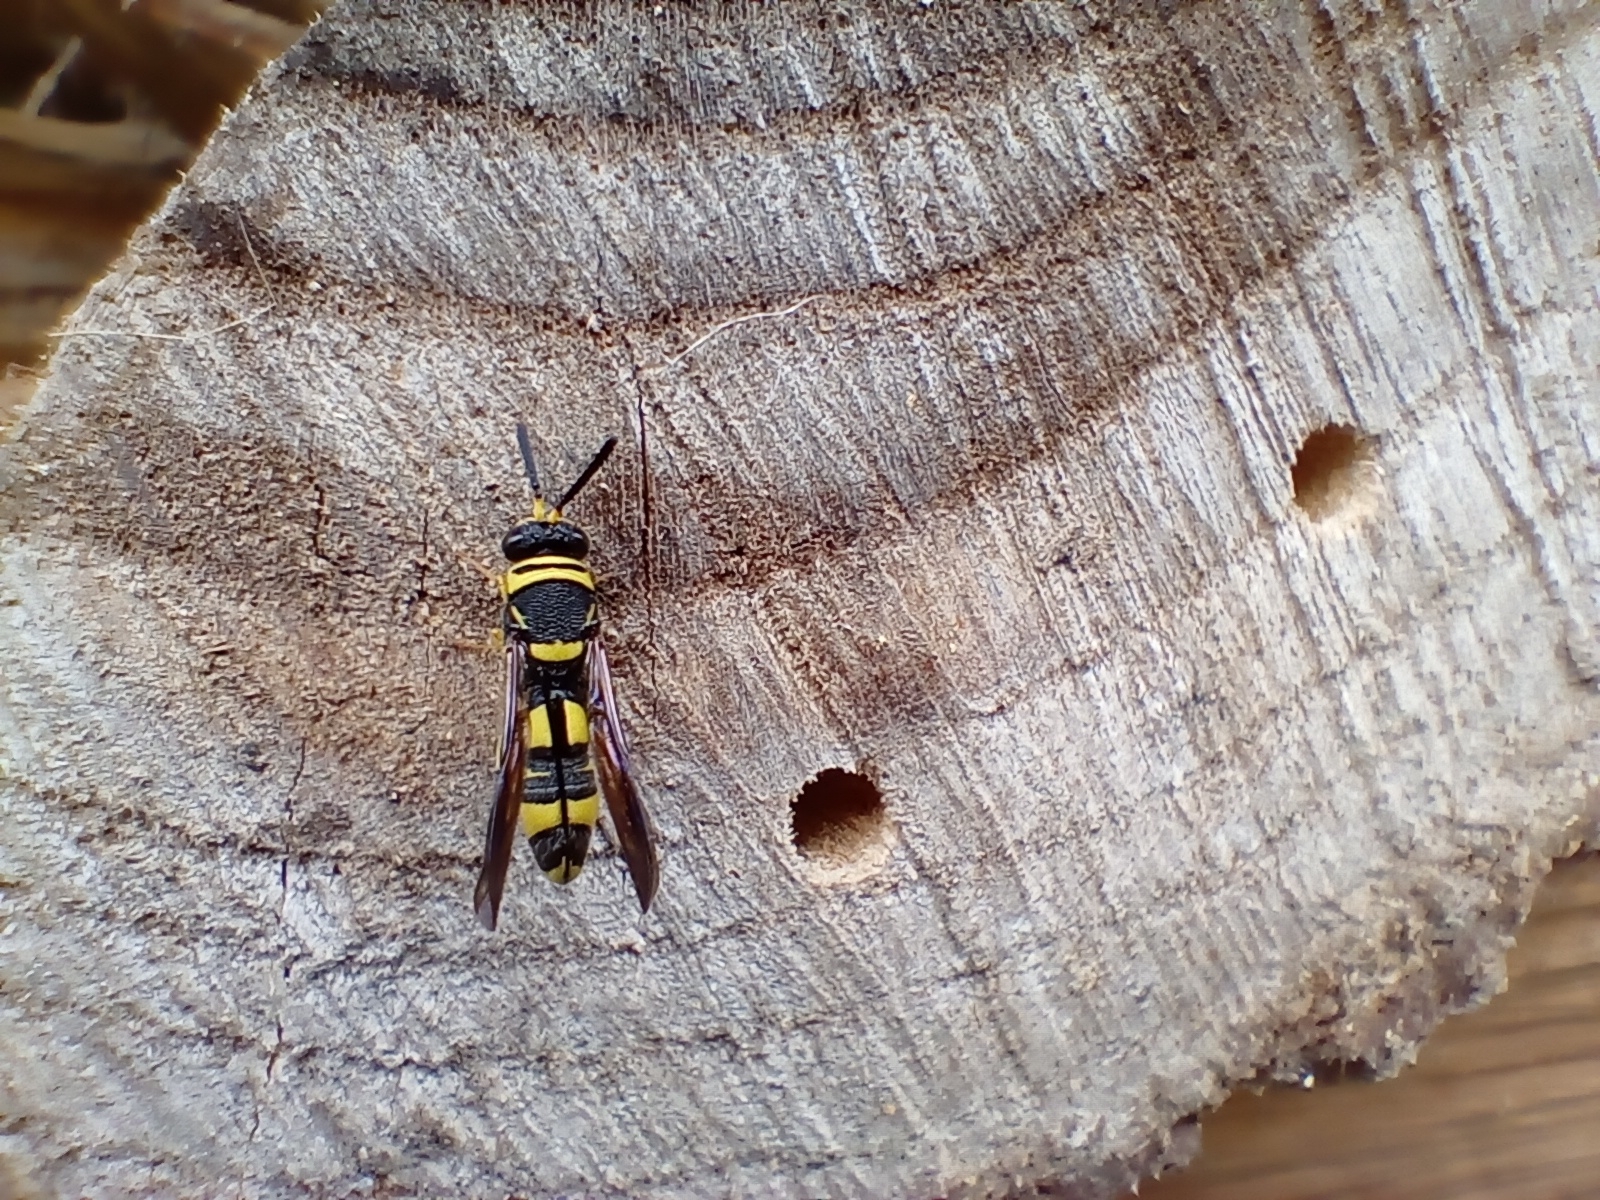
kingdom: Animalia
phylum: Arthropoda
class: Insecta
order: Hymenoptera
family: Leucospidae
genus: Leucospis
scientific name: Leucospis dorsigera
